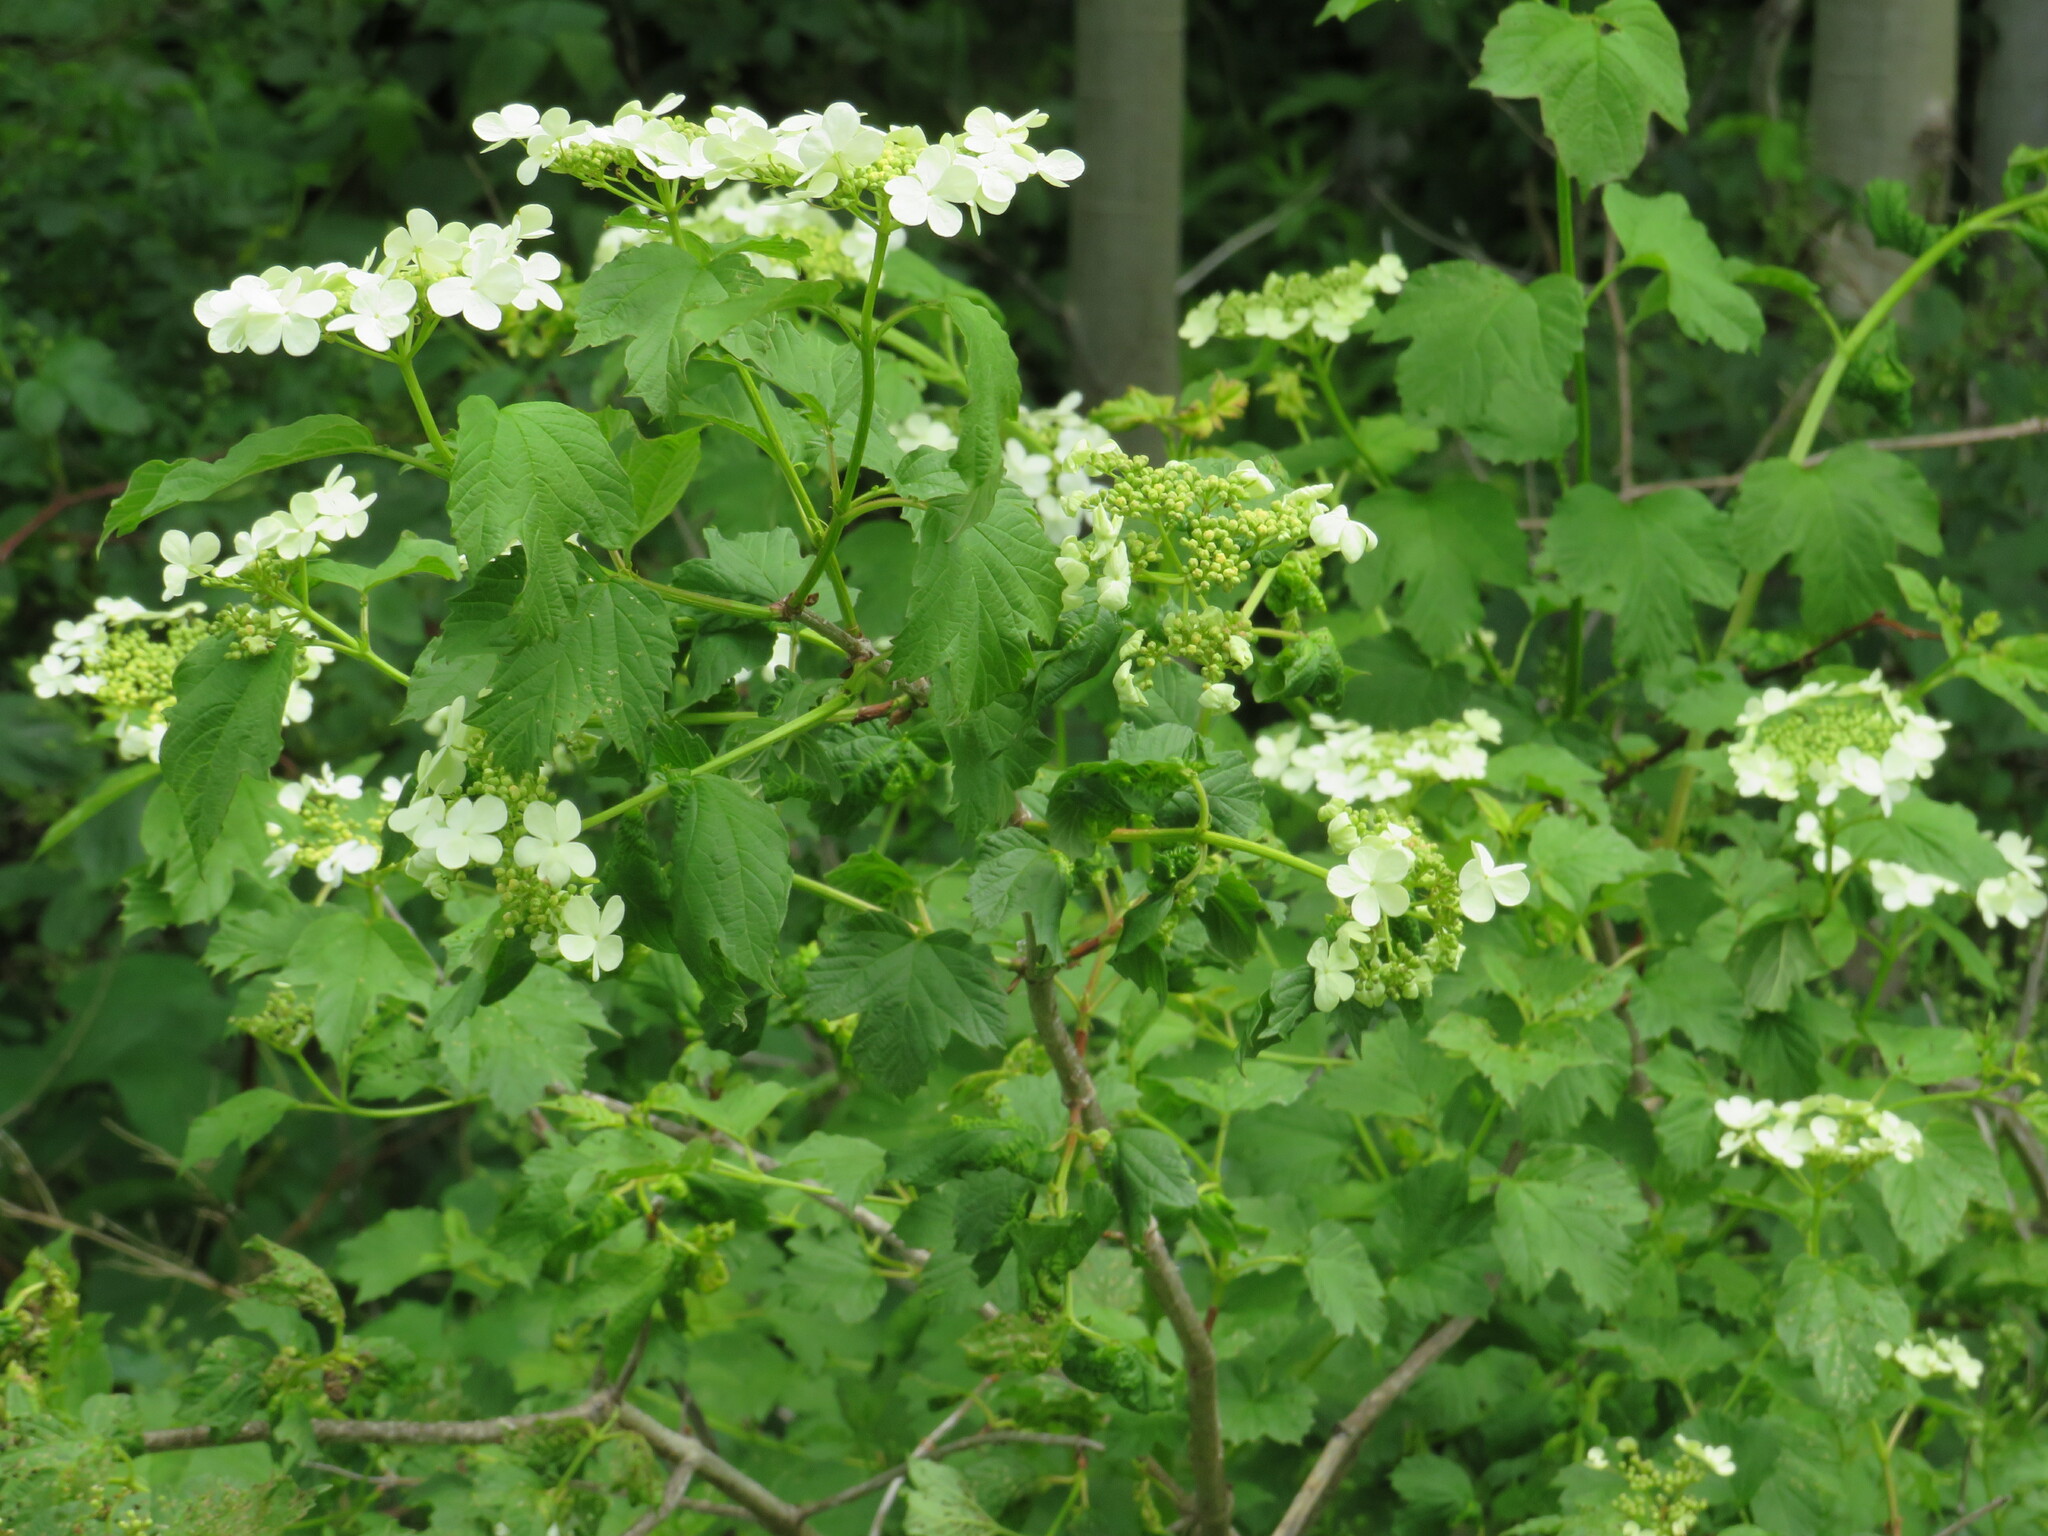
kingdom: Plantae
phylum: Tracheophyta
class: Magnoliopsida
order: Dipsacales
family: Viburnaceae
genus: Viburnum
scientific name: Viburnum opulus
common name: Guelder-rose
